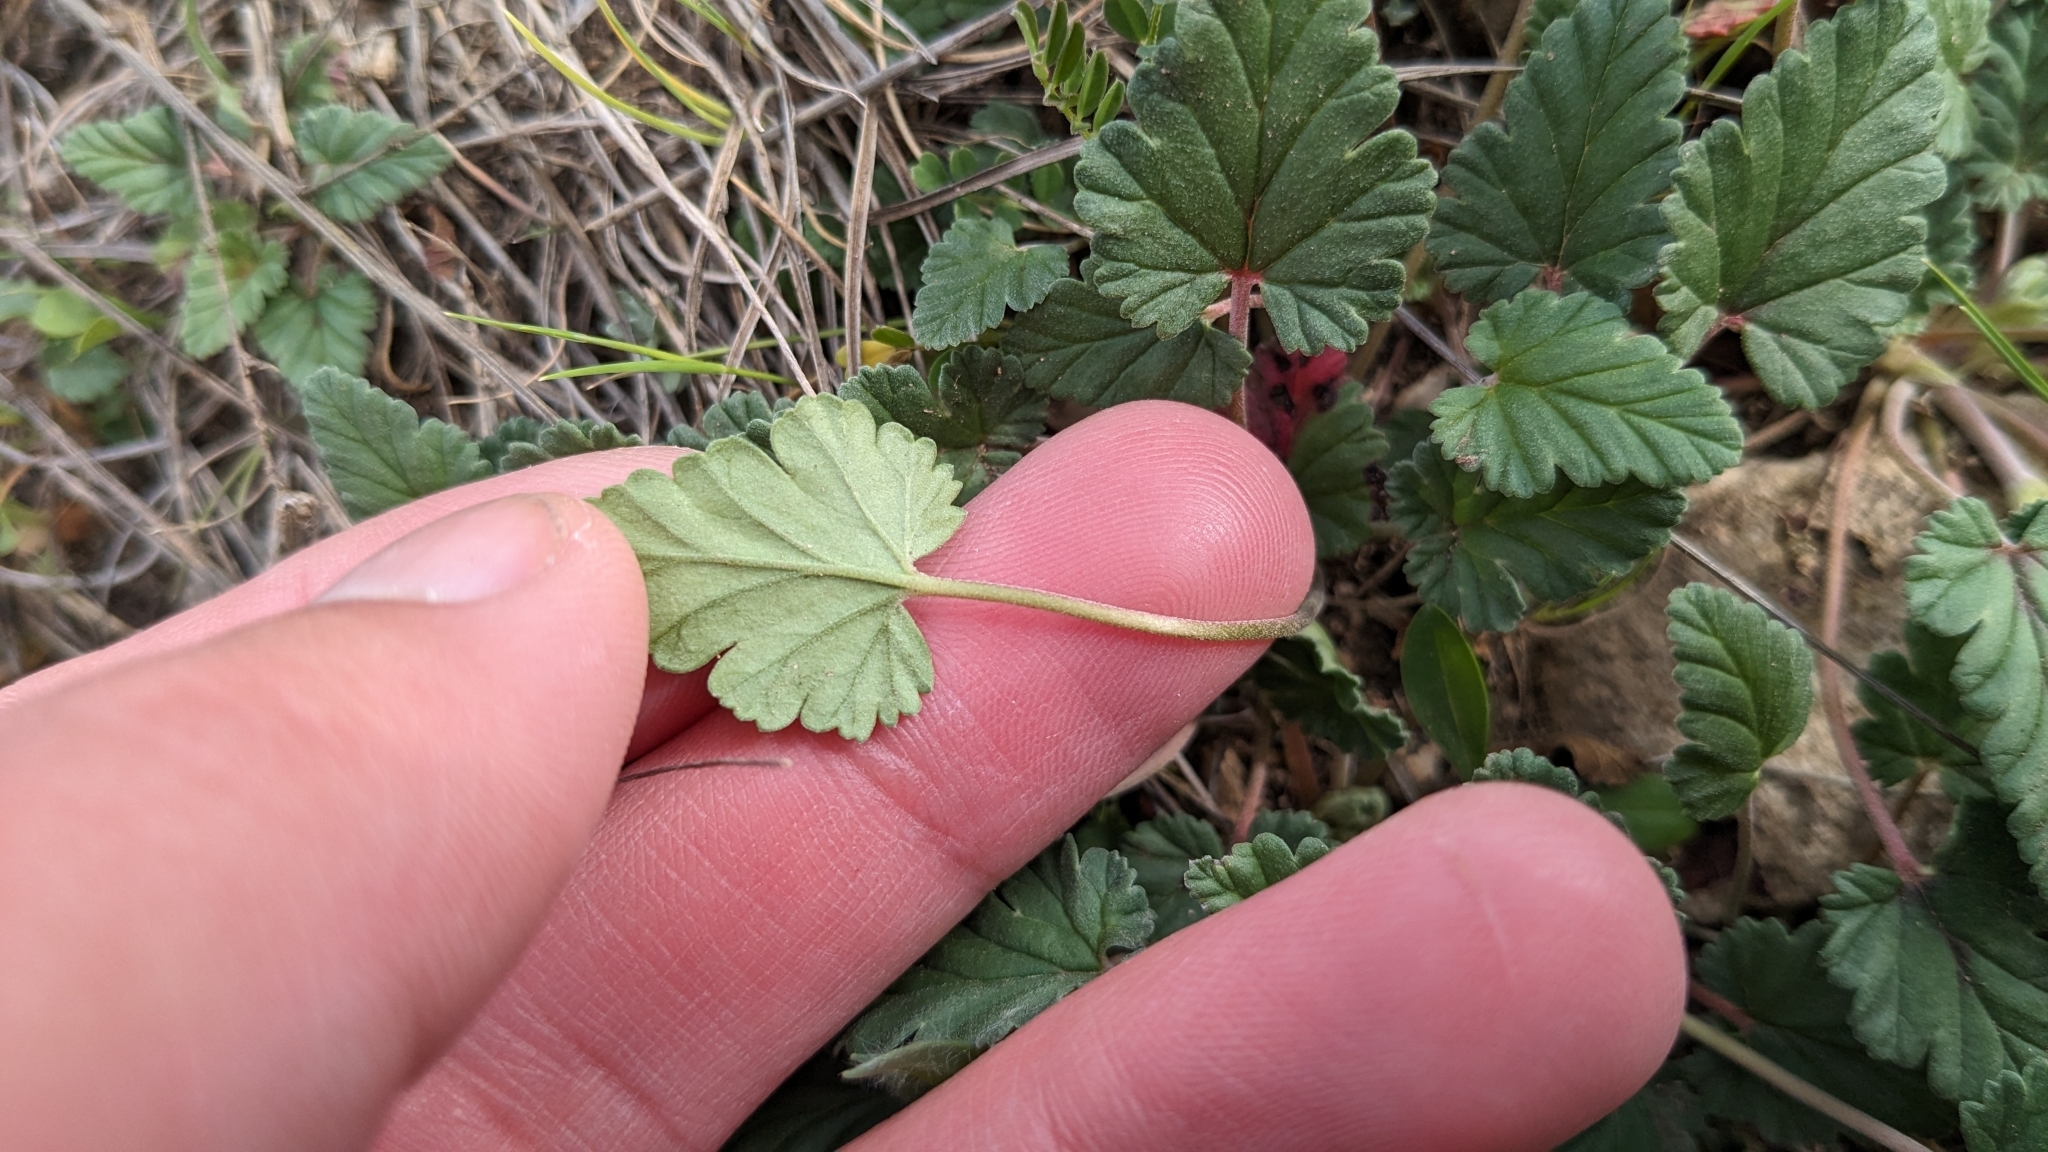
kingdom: Plantae
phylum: Tracheophyta
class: Magnoliopsida
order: Geraniales
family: Geraniaceae
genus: Erodium
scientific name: Erodium texanum
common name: Texas stork's-bill
